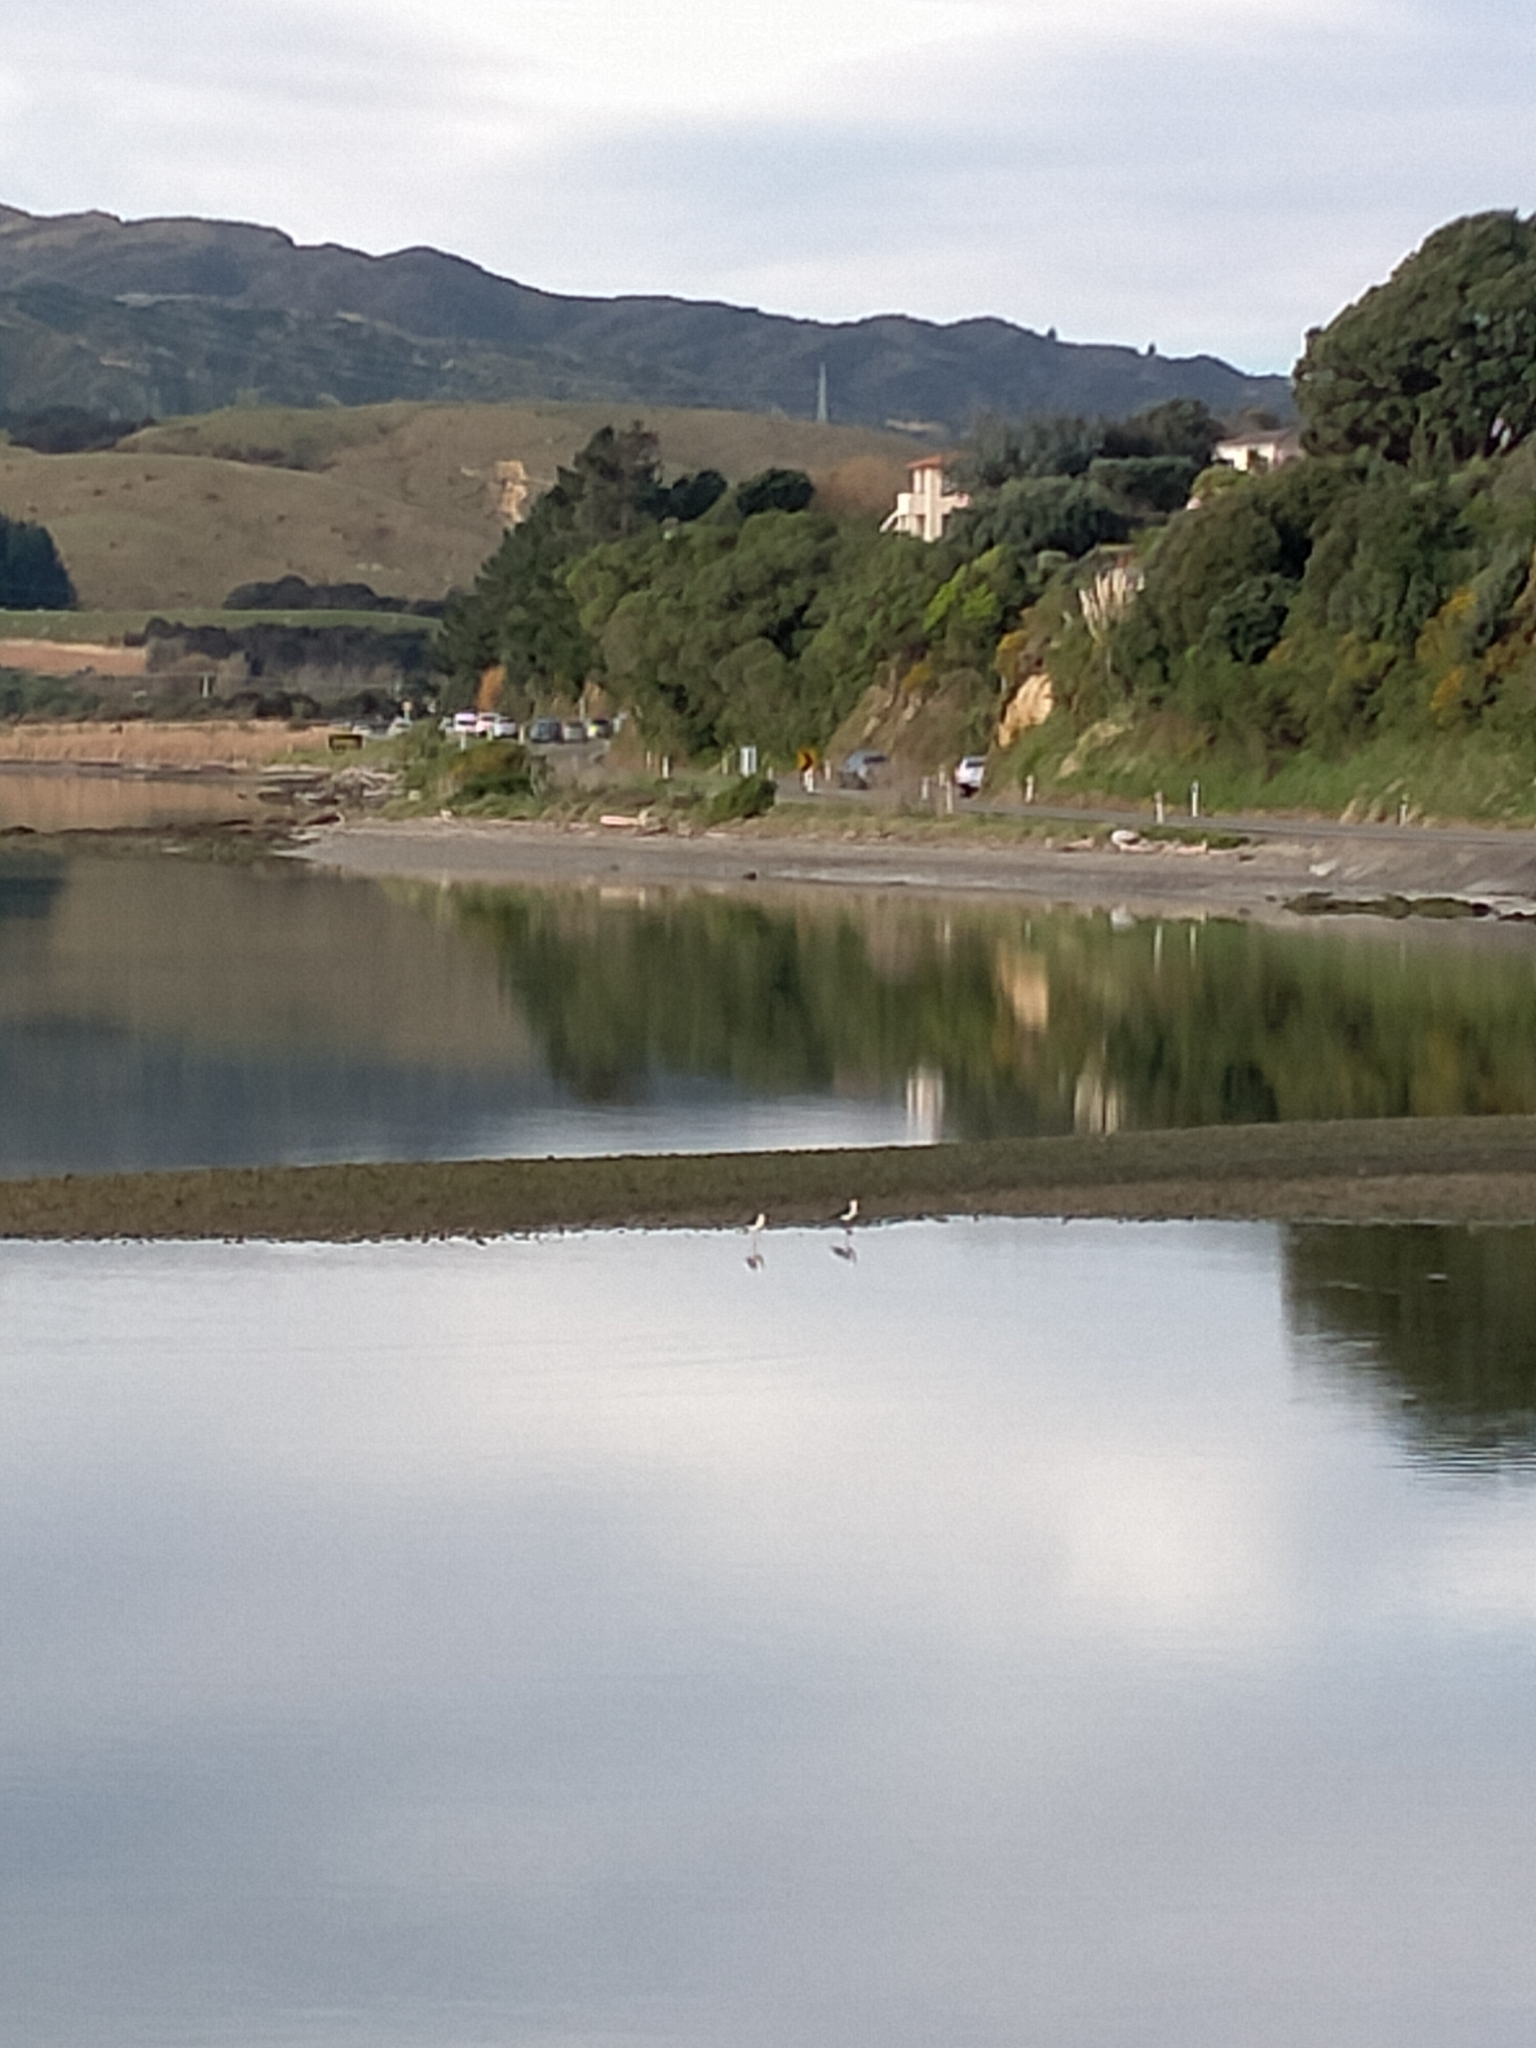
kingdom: Animalia
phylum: Chordata
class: Aves
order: Charadriiformes
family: Recurvirostridae
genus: Himantopus
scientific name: Himantopus leucocephalus
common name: White-headed stilt
